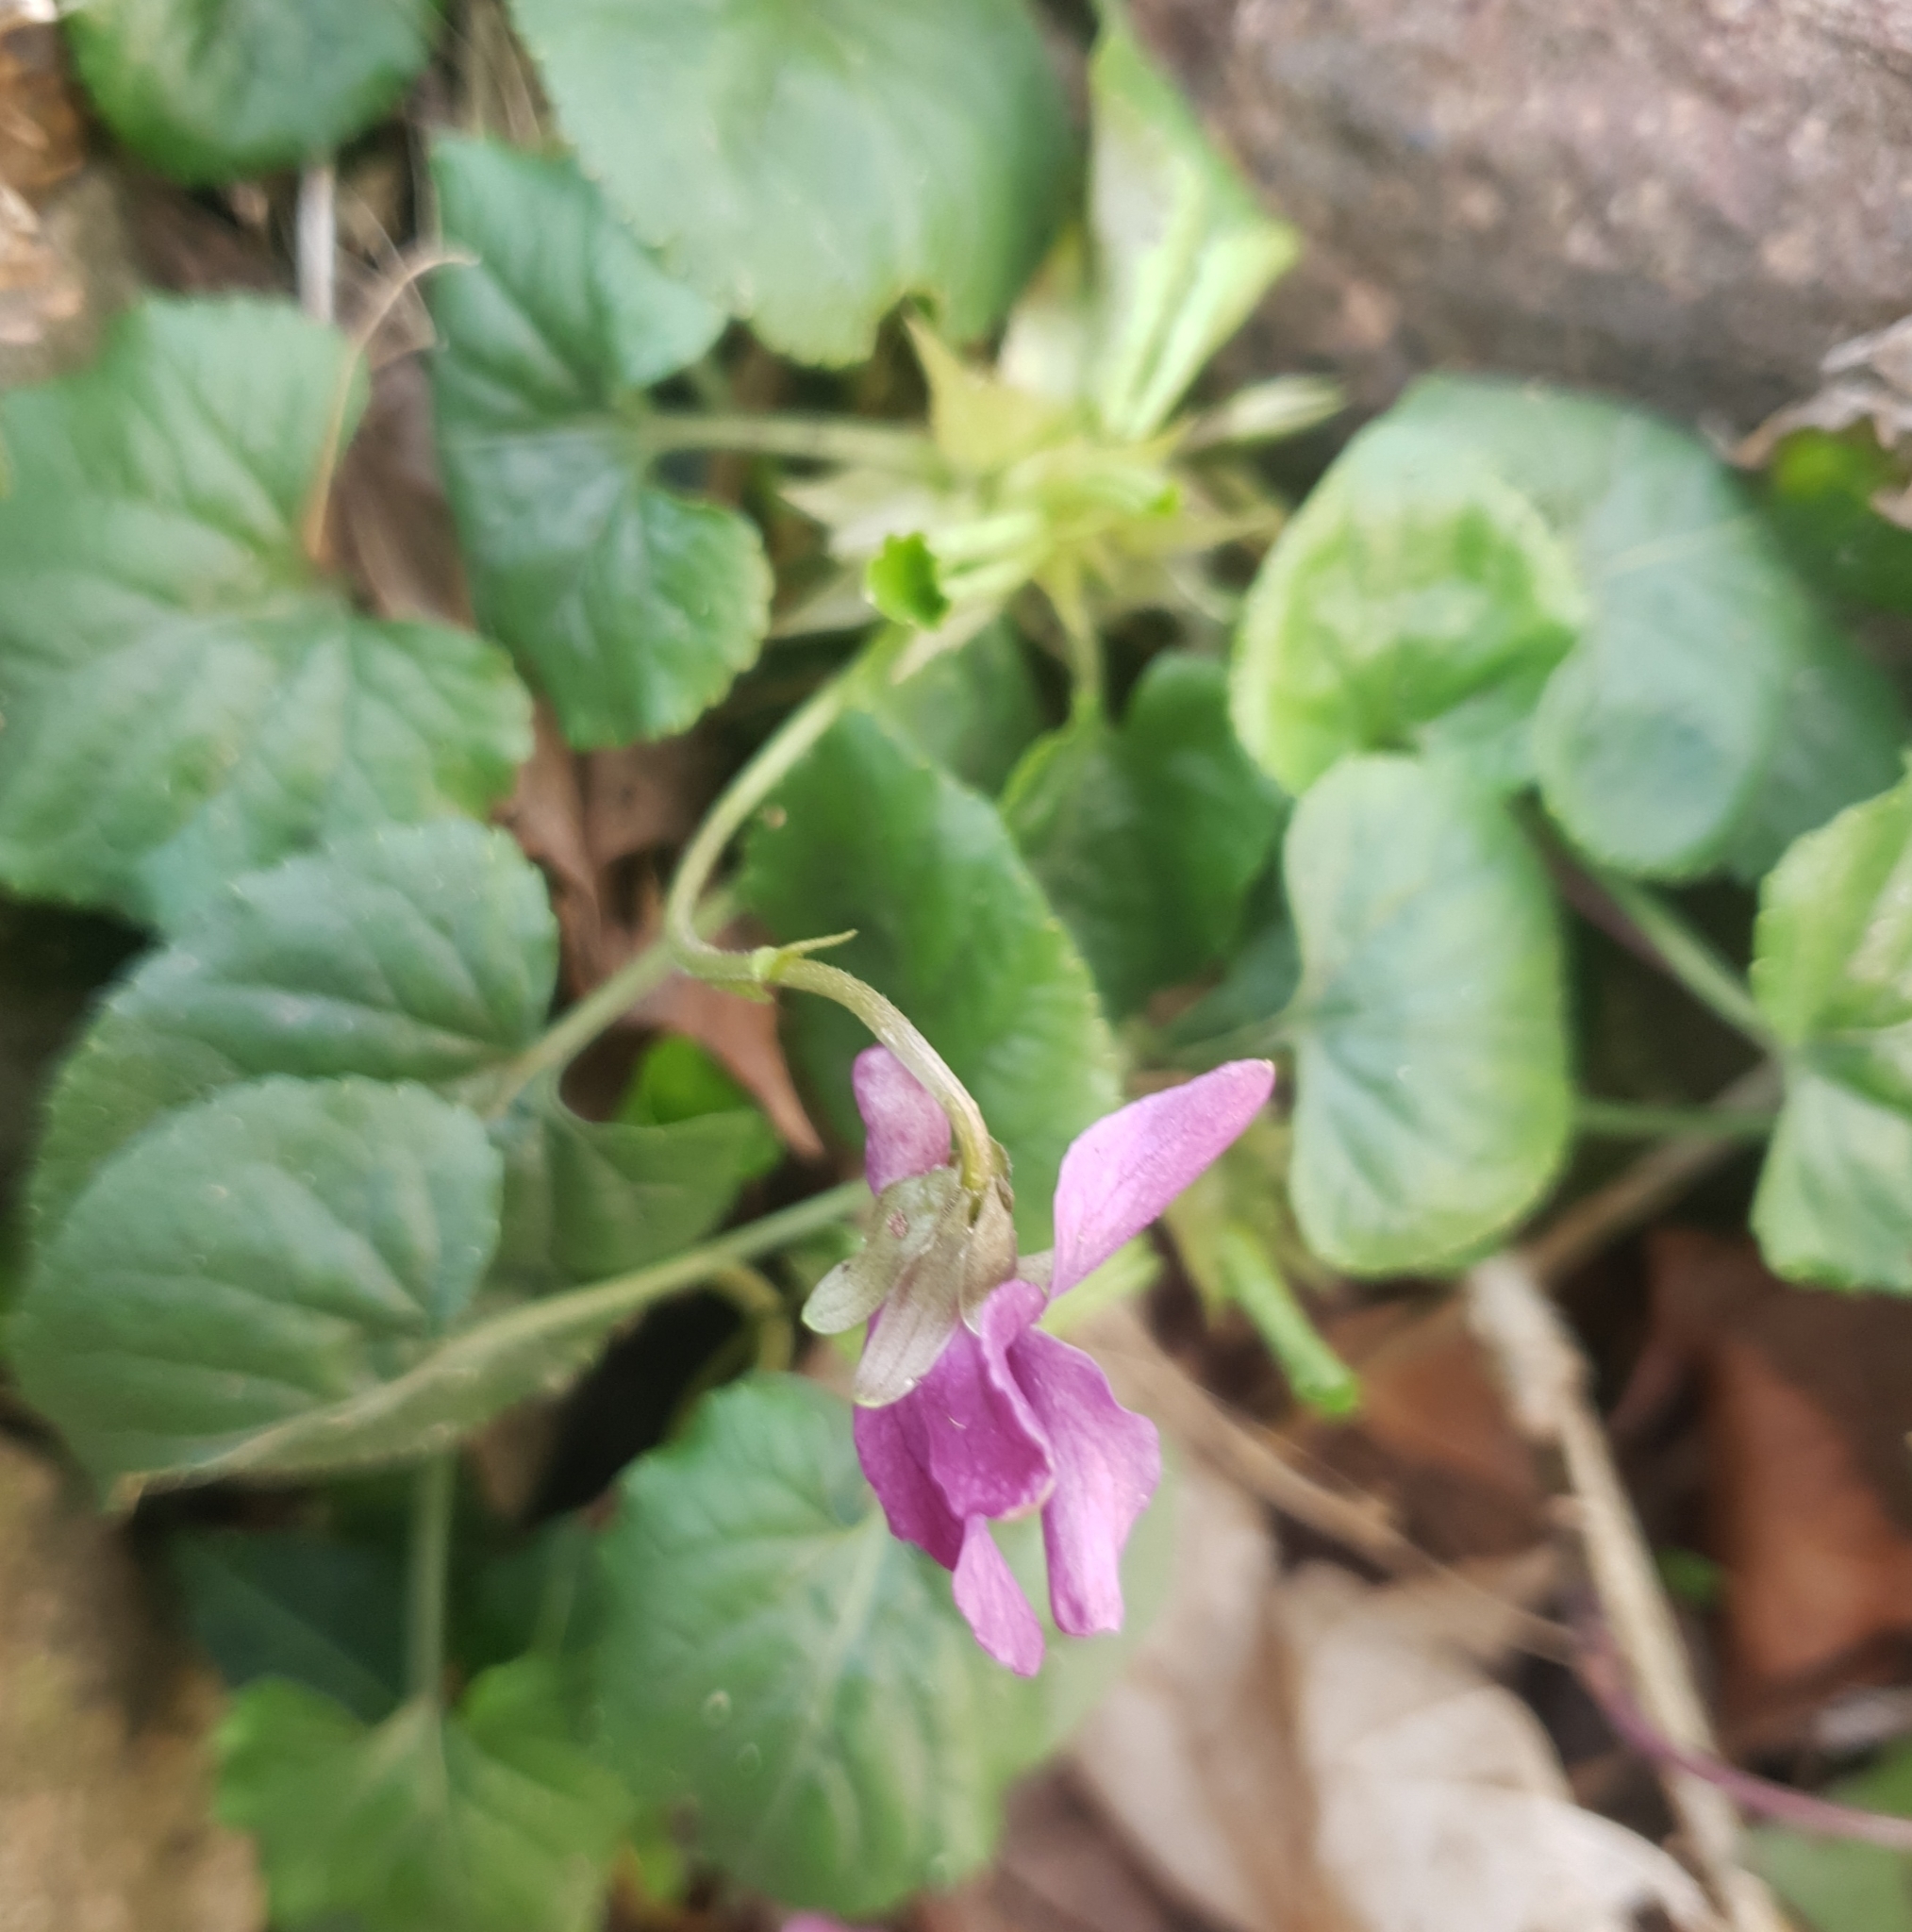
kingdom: Plantae
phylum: Tracheophyta
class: Magnoliopsida
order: Malpighiales
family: Violaceae
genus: Viola
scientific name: Viola odorata
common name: Sweet violet
